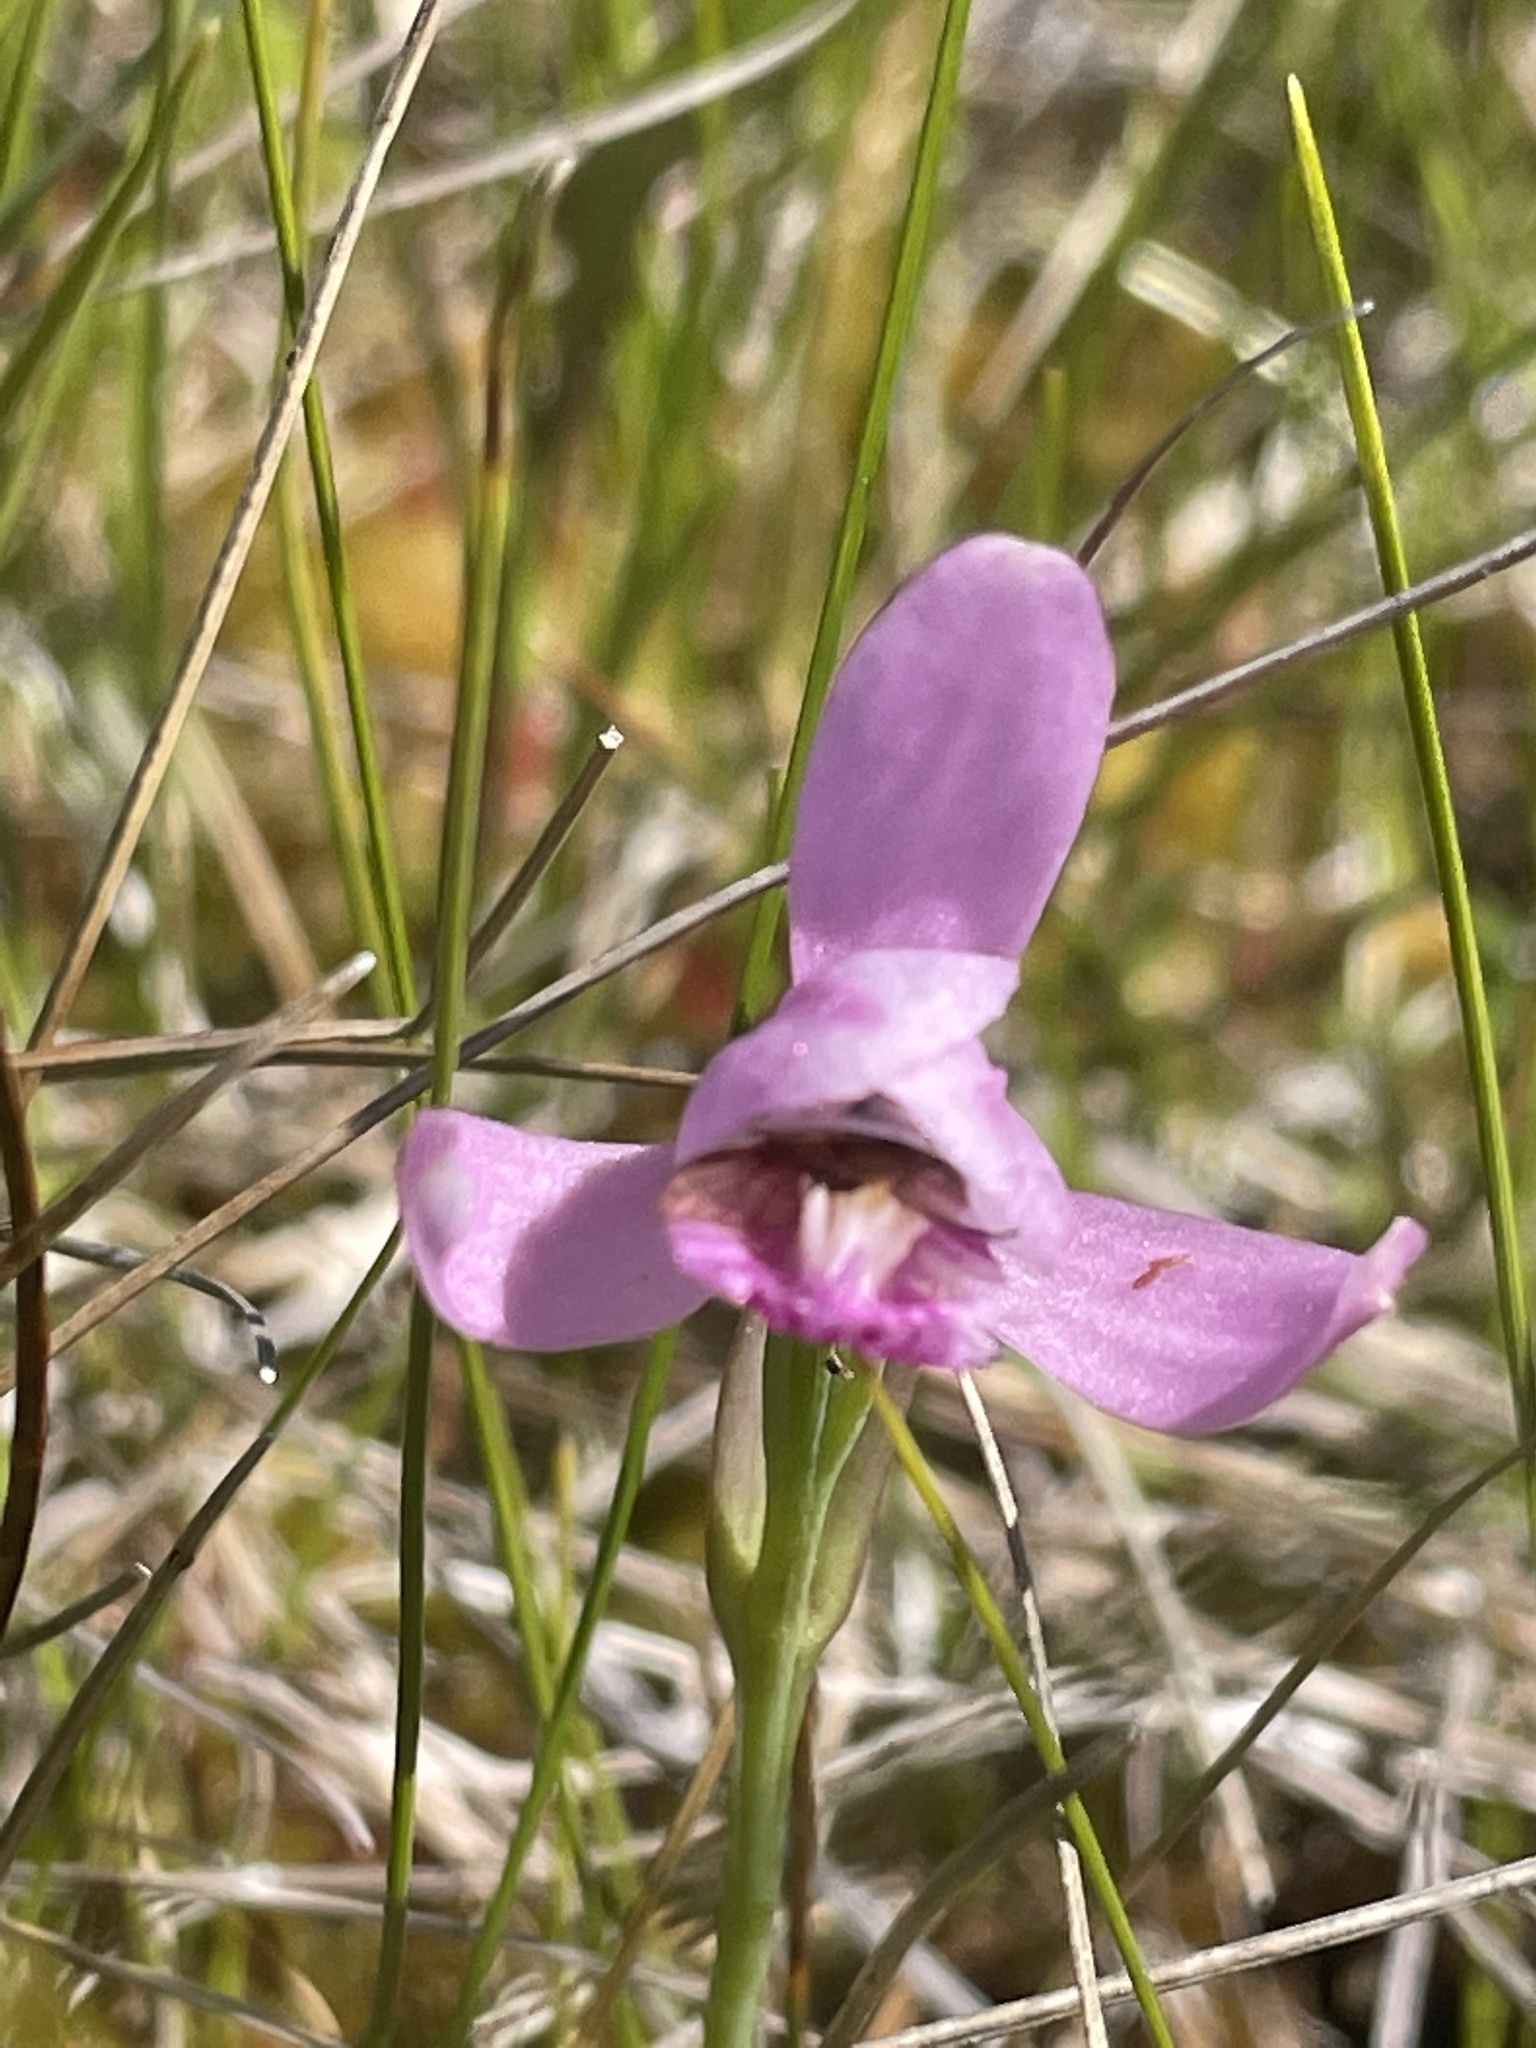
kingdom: Plantae
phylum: Tracheophyta
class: Liliopsida
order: Asparagales
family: Orchidaceae
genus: Pogonia
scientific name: Pogonia ophioglossoides
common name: Rose pogonia
